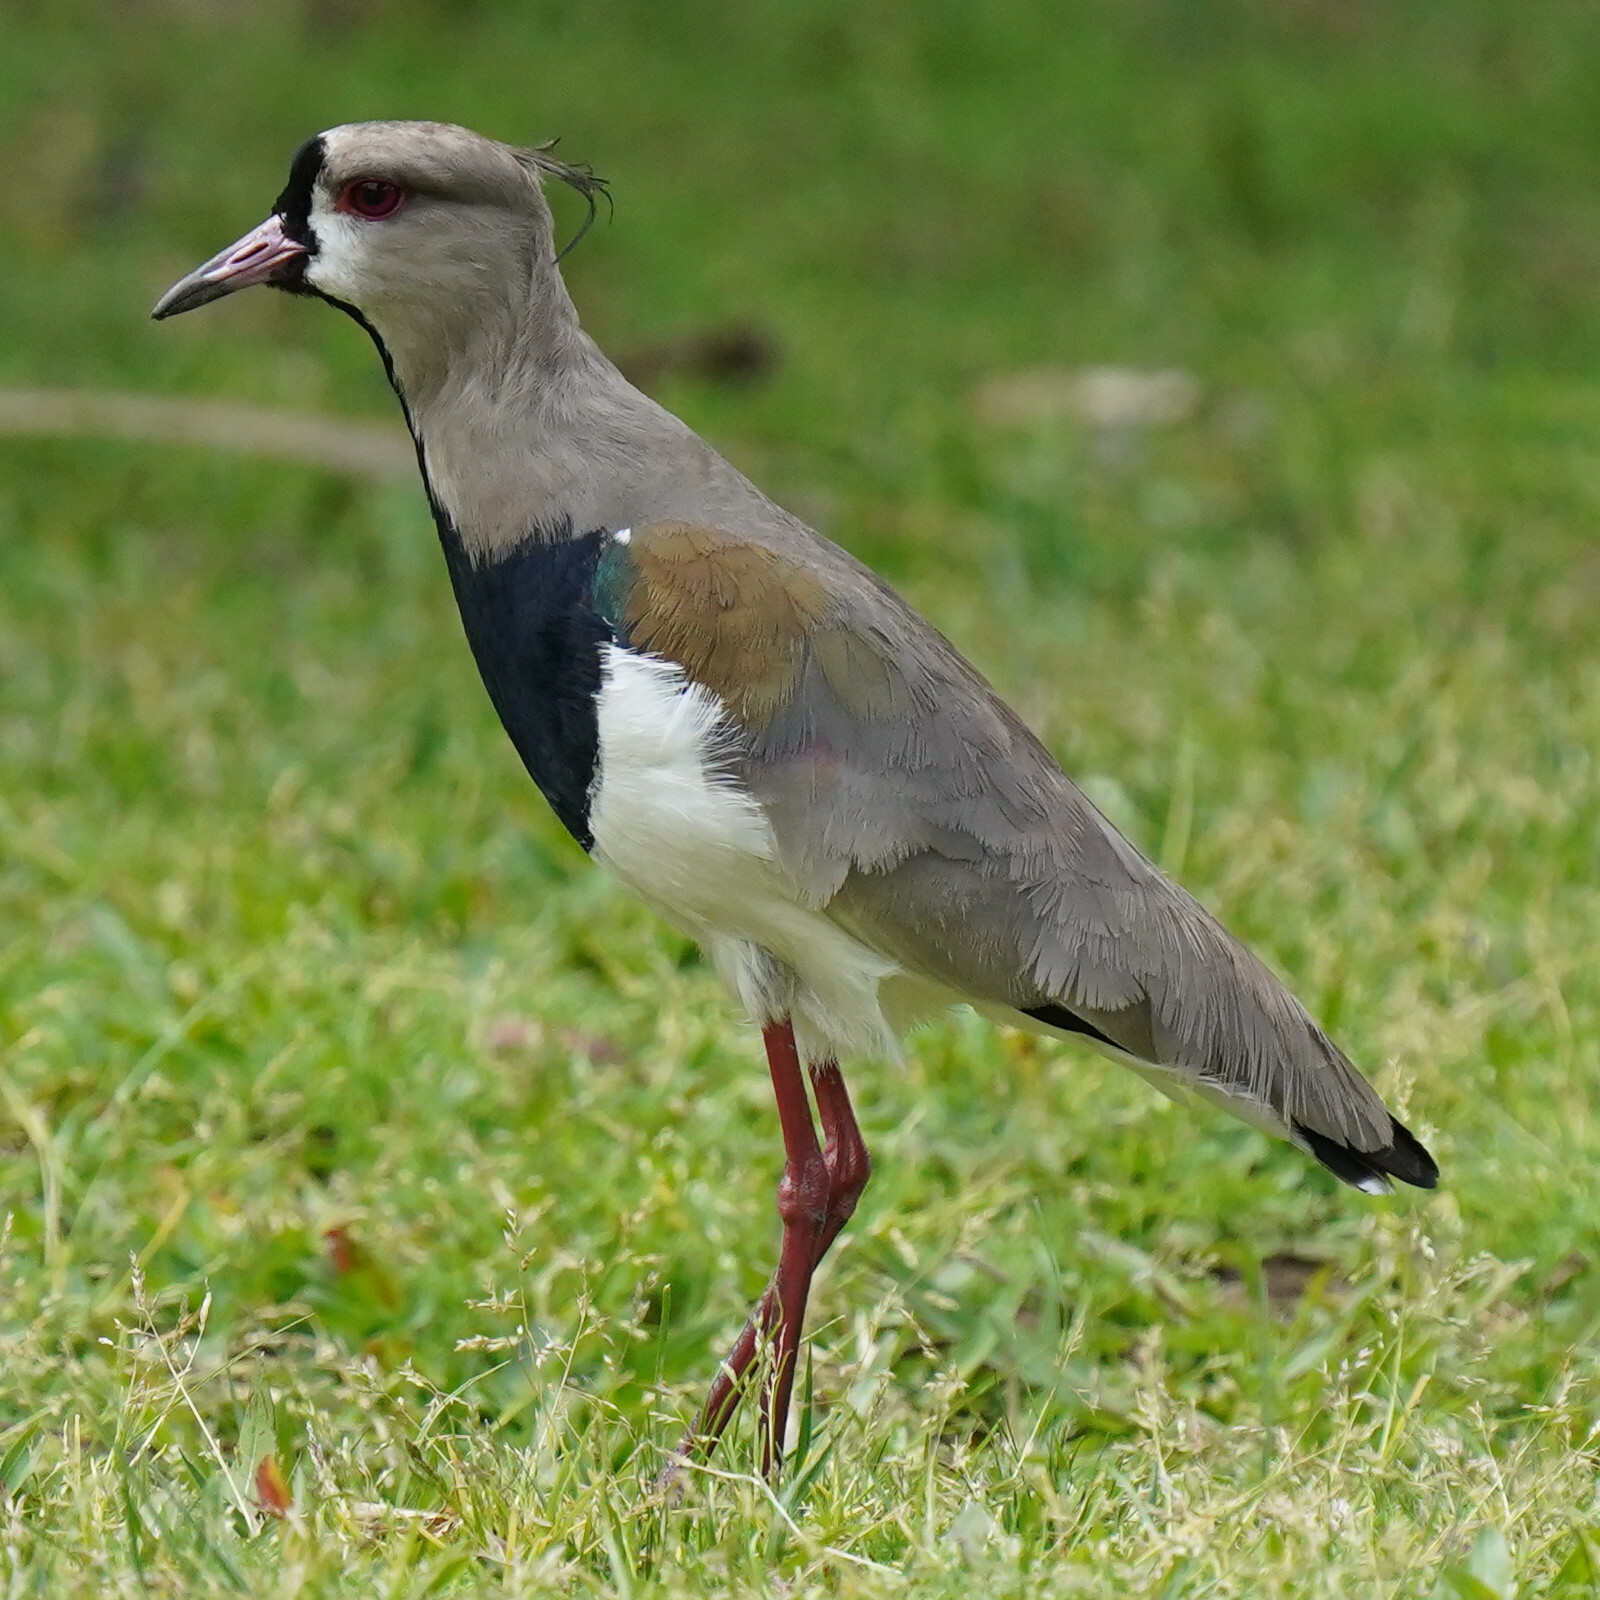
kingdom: Animalia
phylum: Chordata
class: Aves
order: Charadriiformes
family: Charadriidae
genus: Vanellus
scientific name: Vanellus chilensis
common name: Southern lapwing
